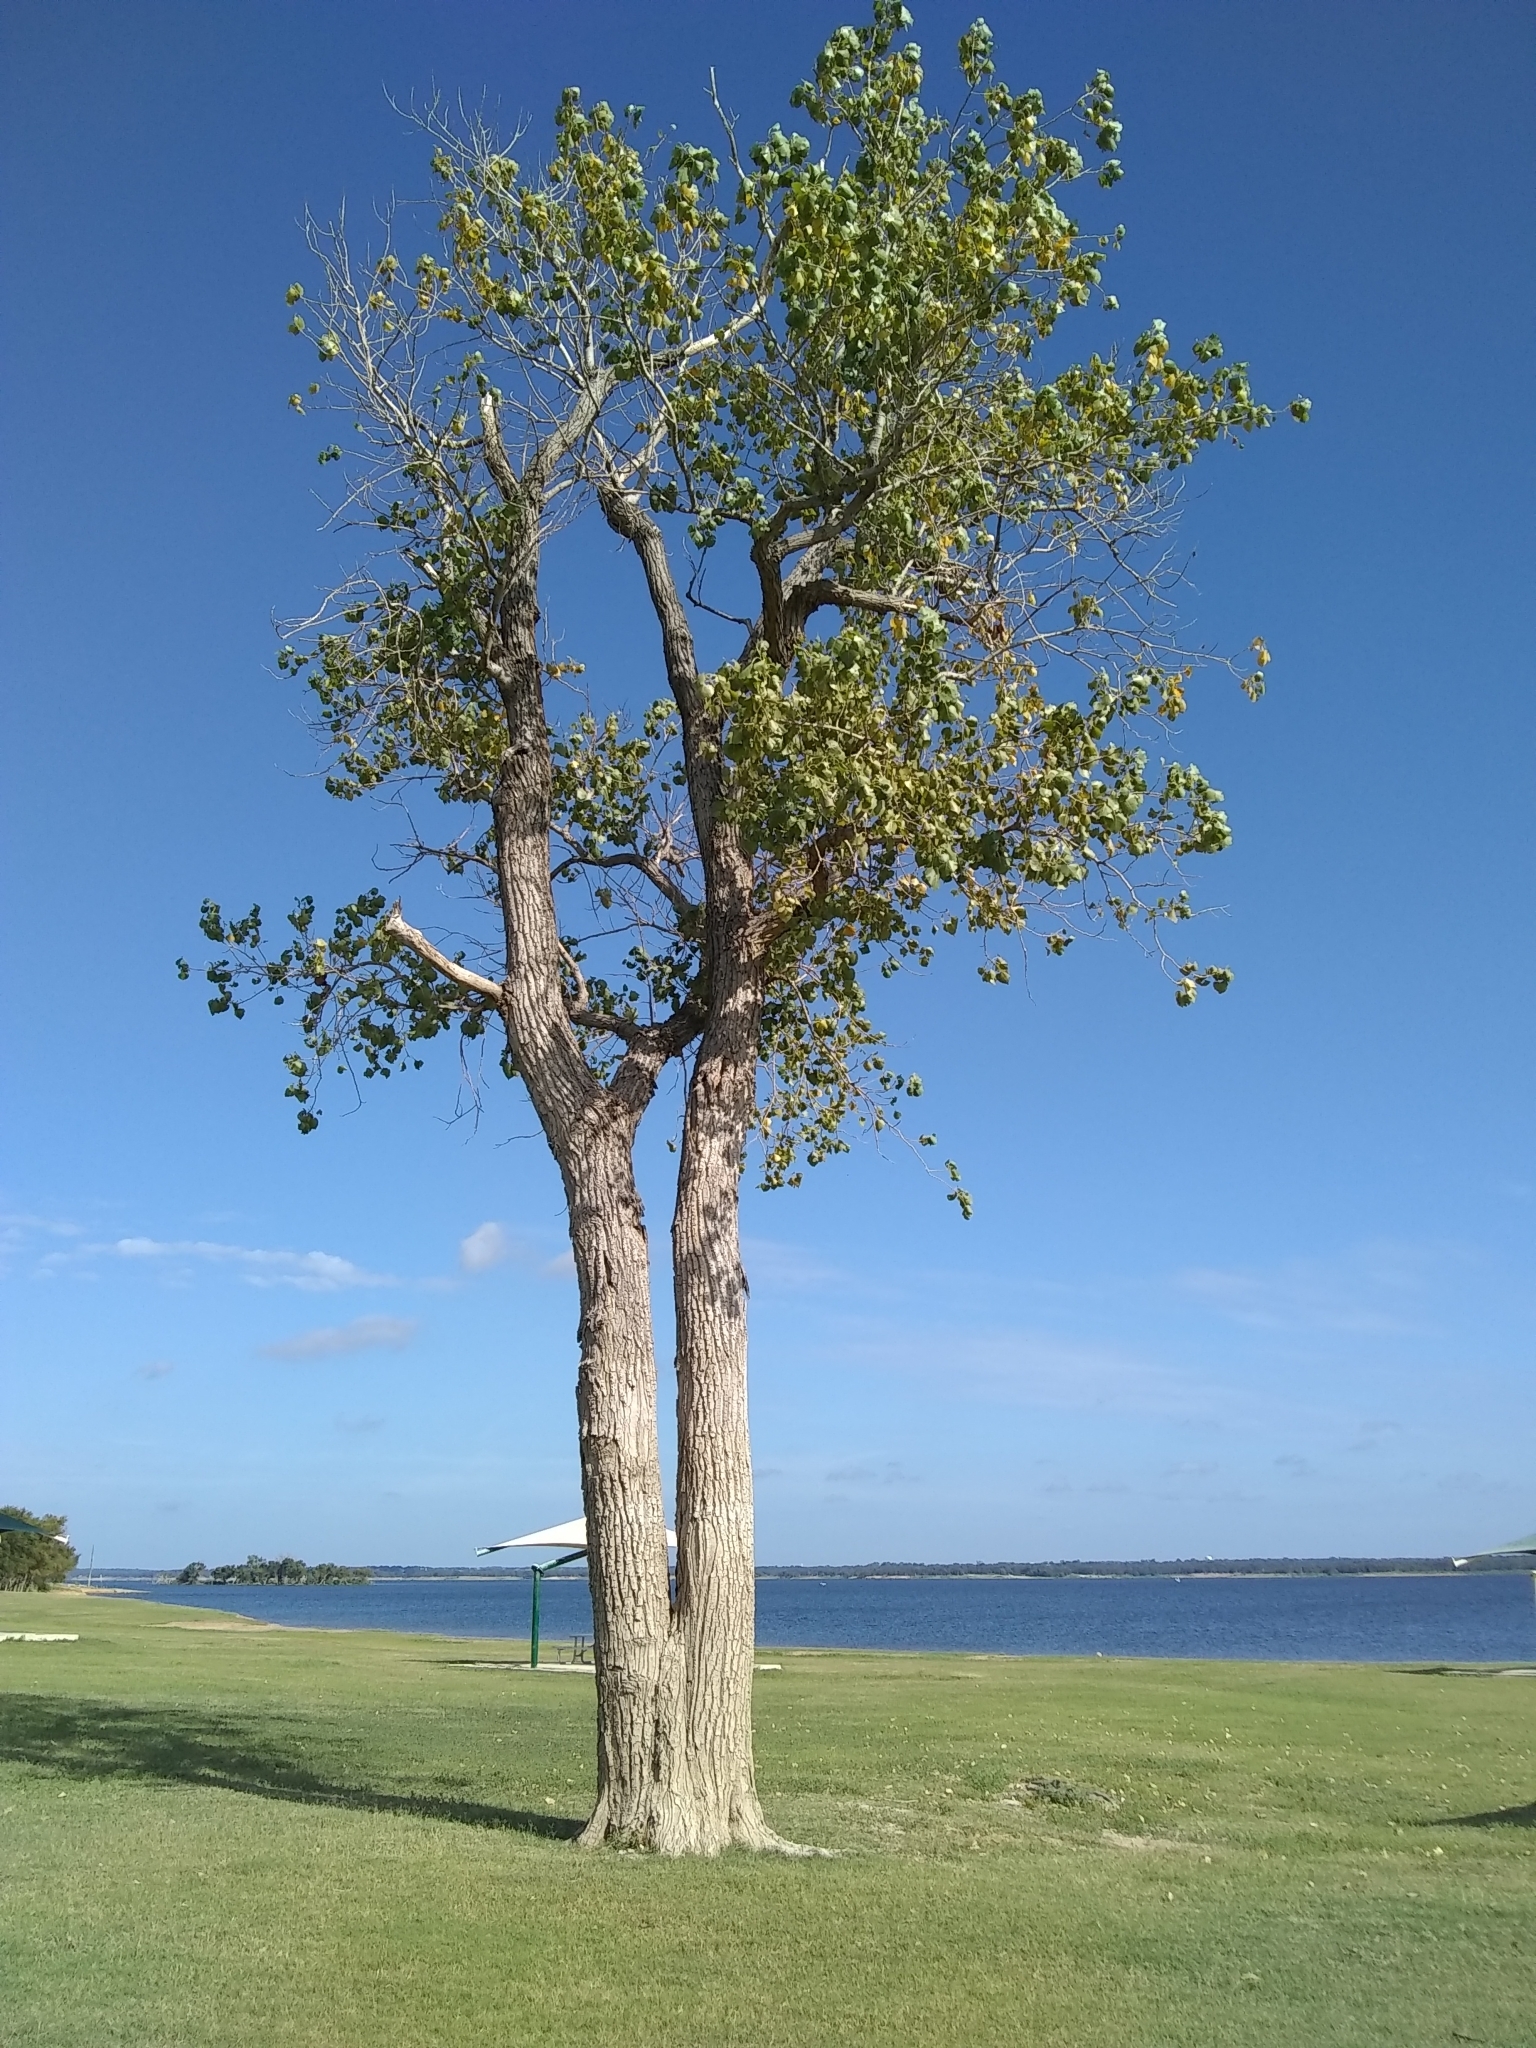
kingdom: Plantae
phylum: Tracheophyta
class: Magnoliopsida
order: Malpighiales
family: Salicaceae
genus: Populus
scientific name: Populus deltoides
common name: Eastern cottonwood
